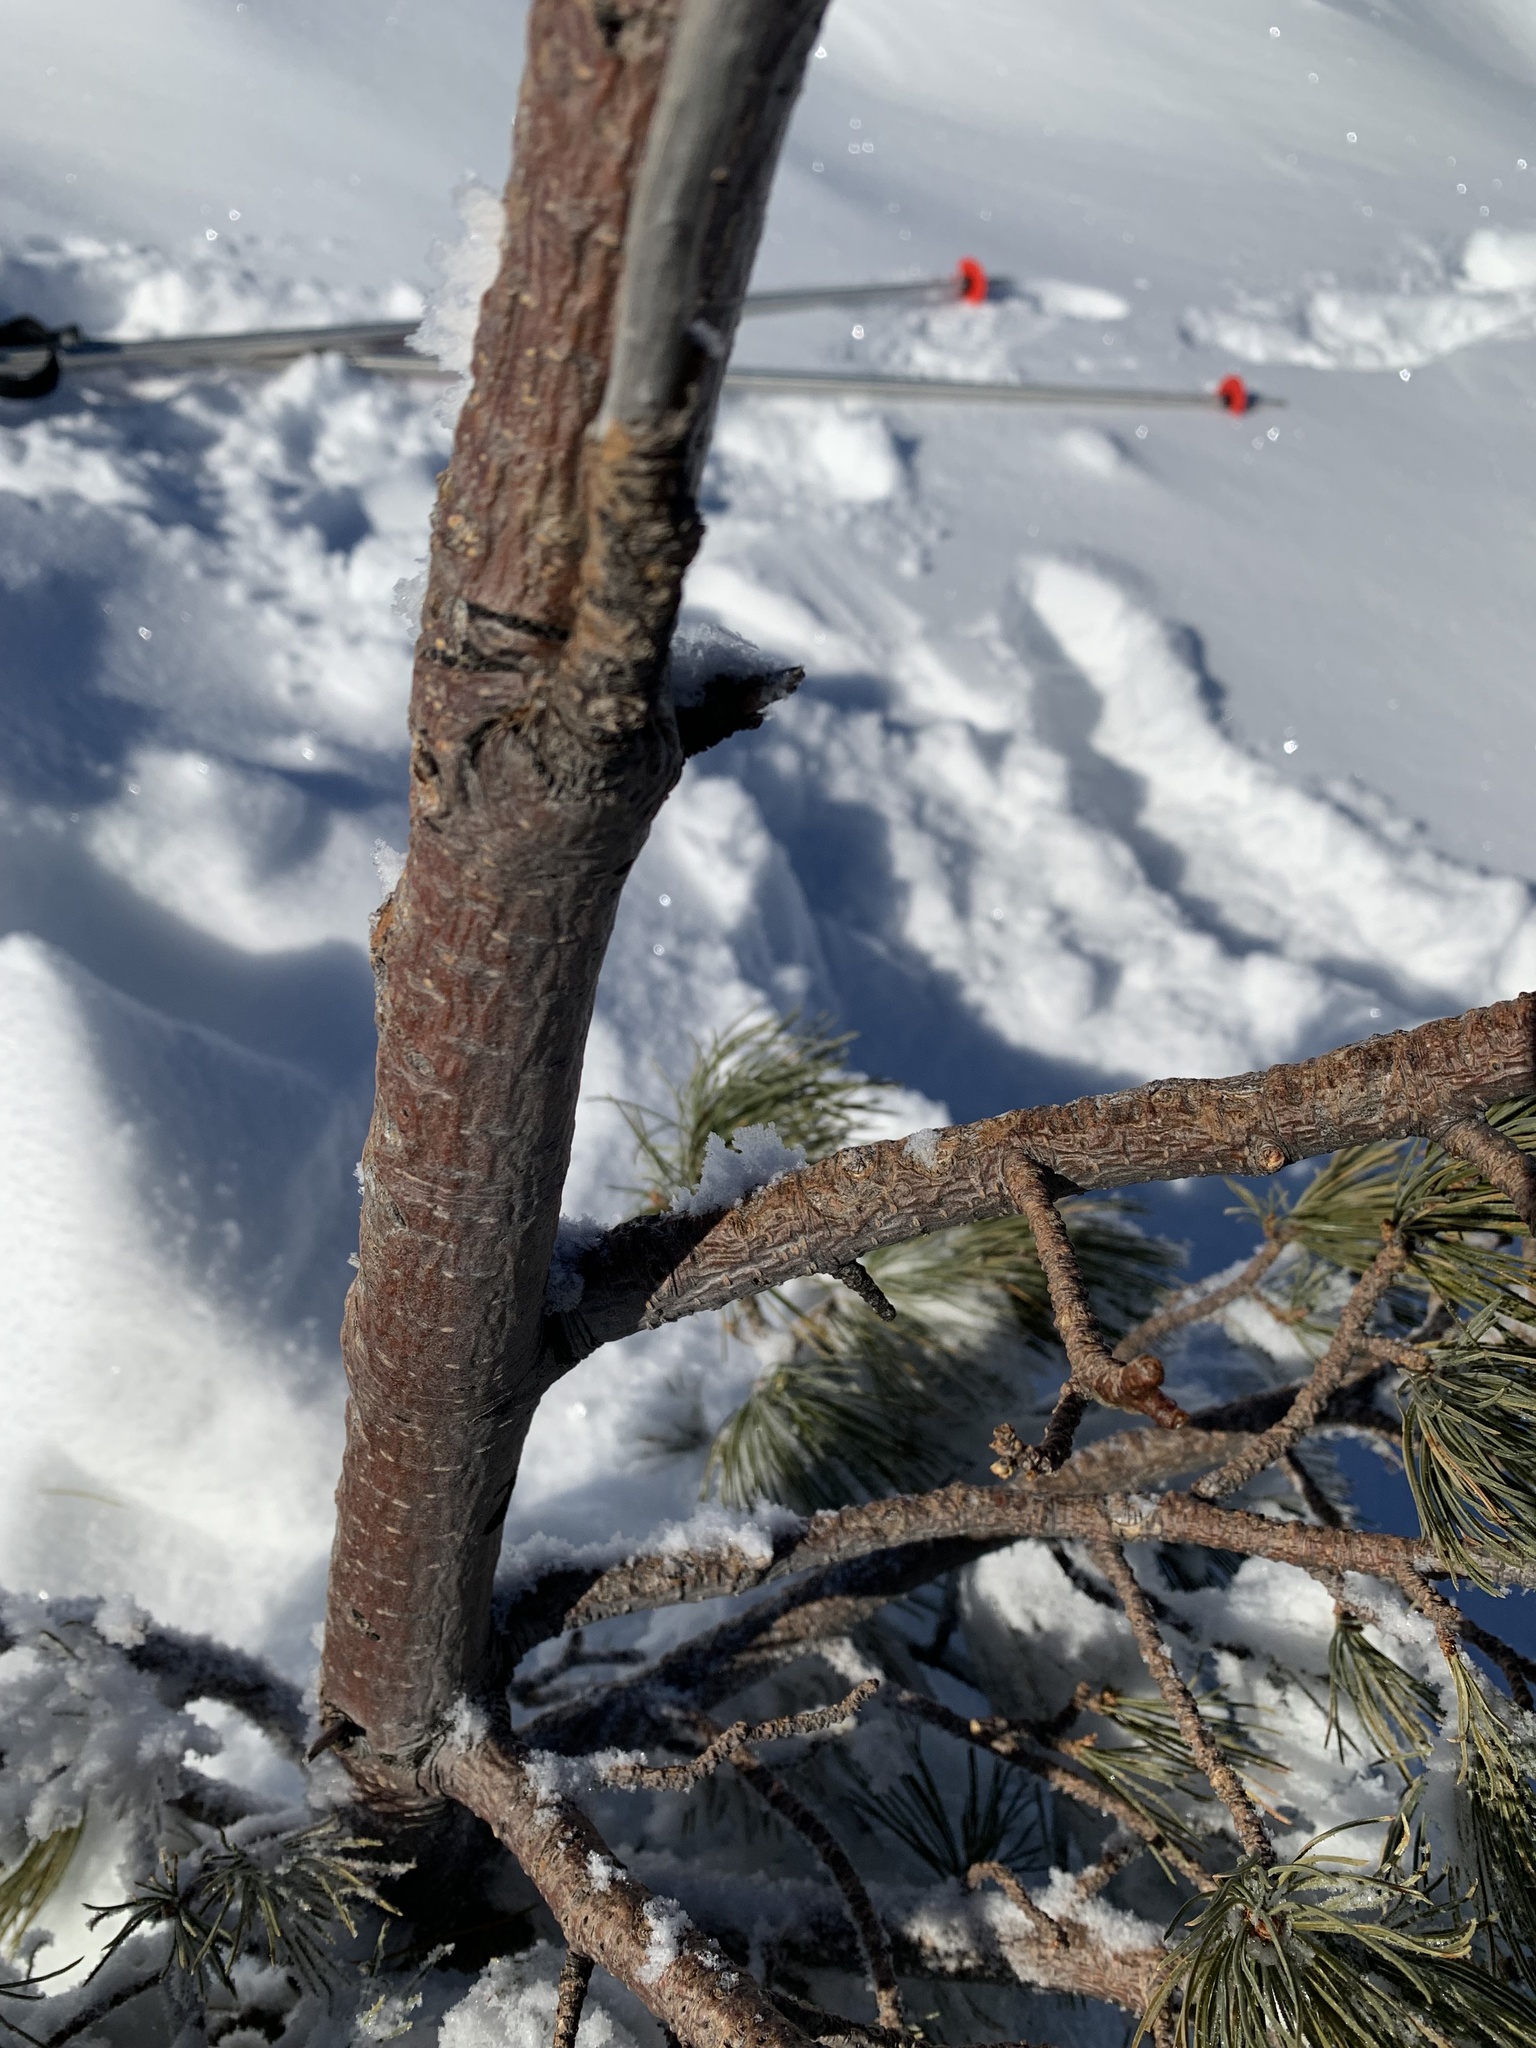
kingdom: Plantae
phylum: Tracheophyta
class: Pinopsida
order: Pinales
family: Pinaceae
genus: Pinus
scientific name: Pinus sibirica
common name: Siberian pine
